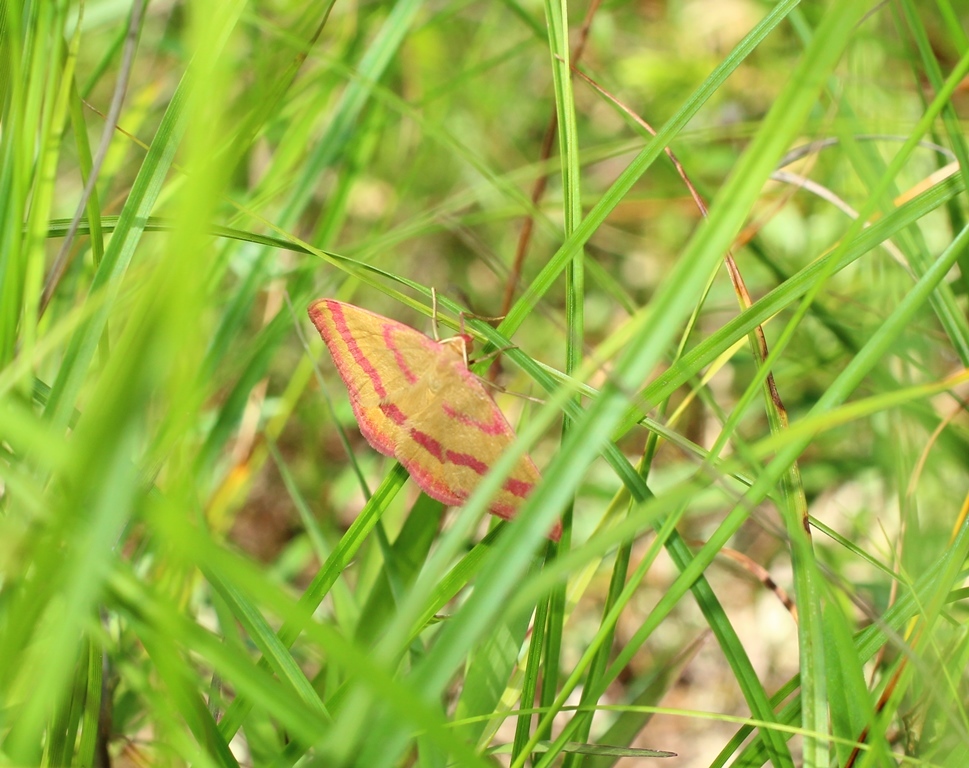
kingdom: Animalia
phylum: Arthropoda
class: Insecta
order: Lepidoptera
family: Geometridae
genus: Rhodostrophia
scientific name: Rhodostrophia calabra
